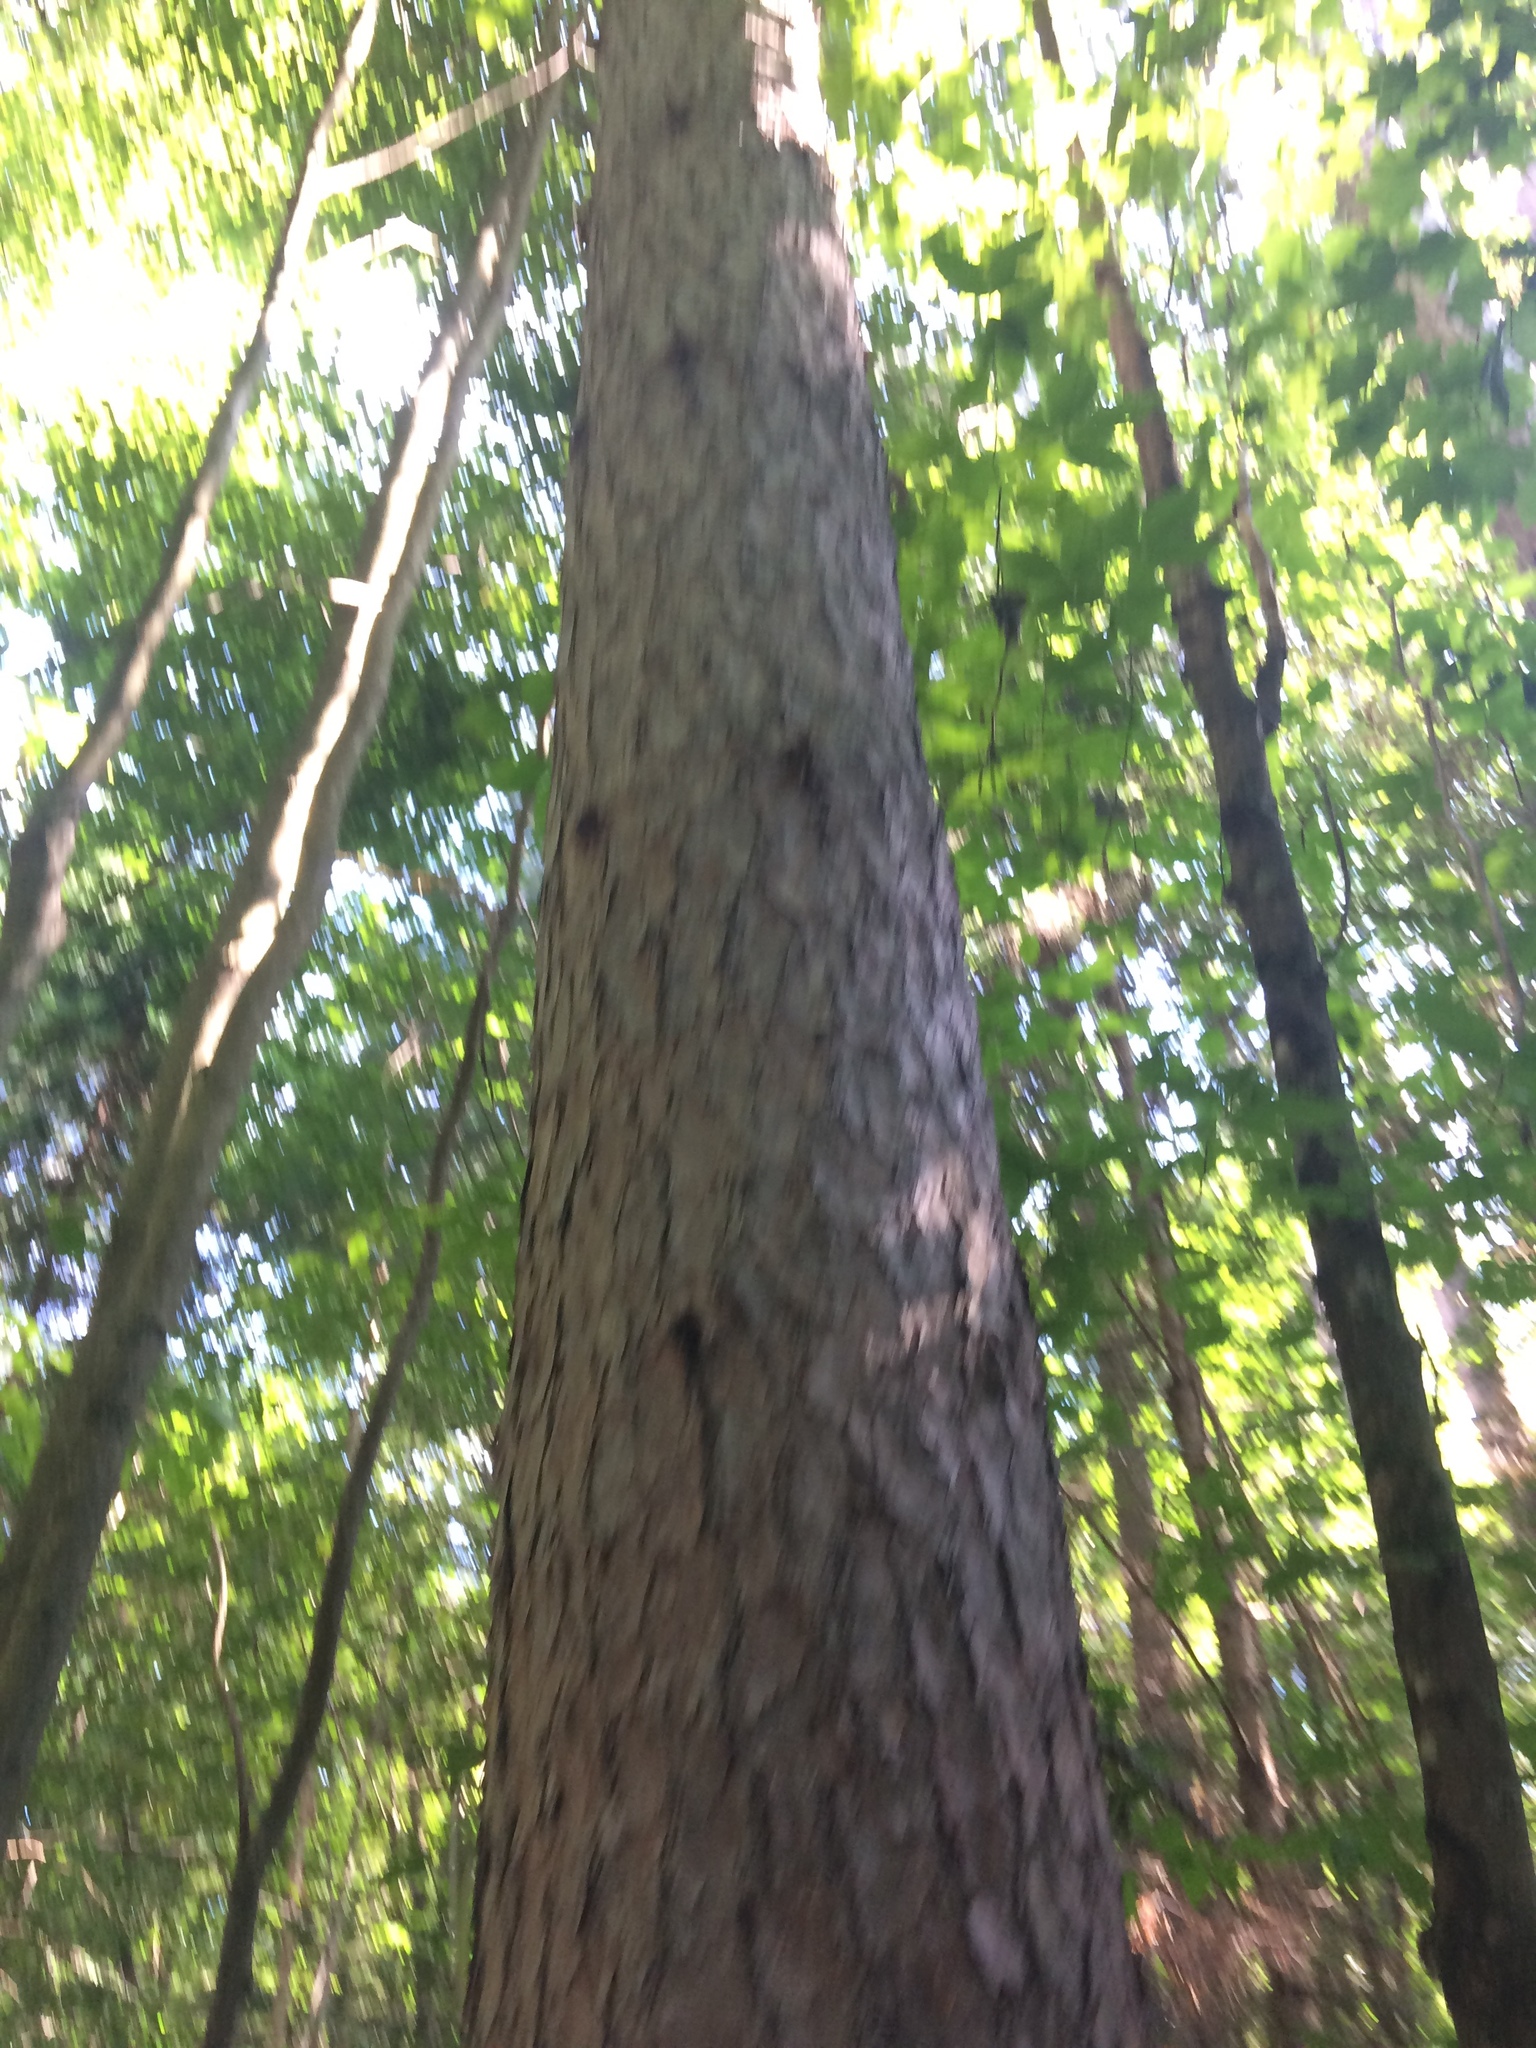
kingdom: Plantae
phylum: Tracheophyta
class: Pinopsida
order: Pinales
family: Pinaceae
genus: Pinus
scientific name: Pinus resinosa
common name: Norway pine
